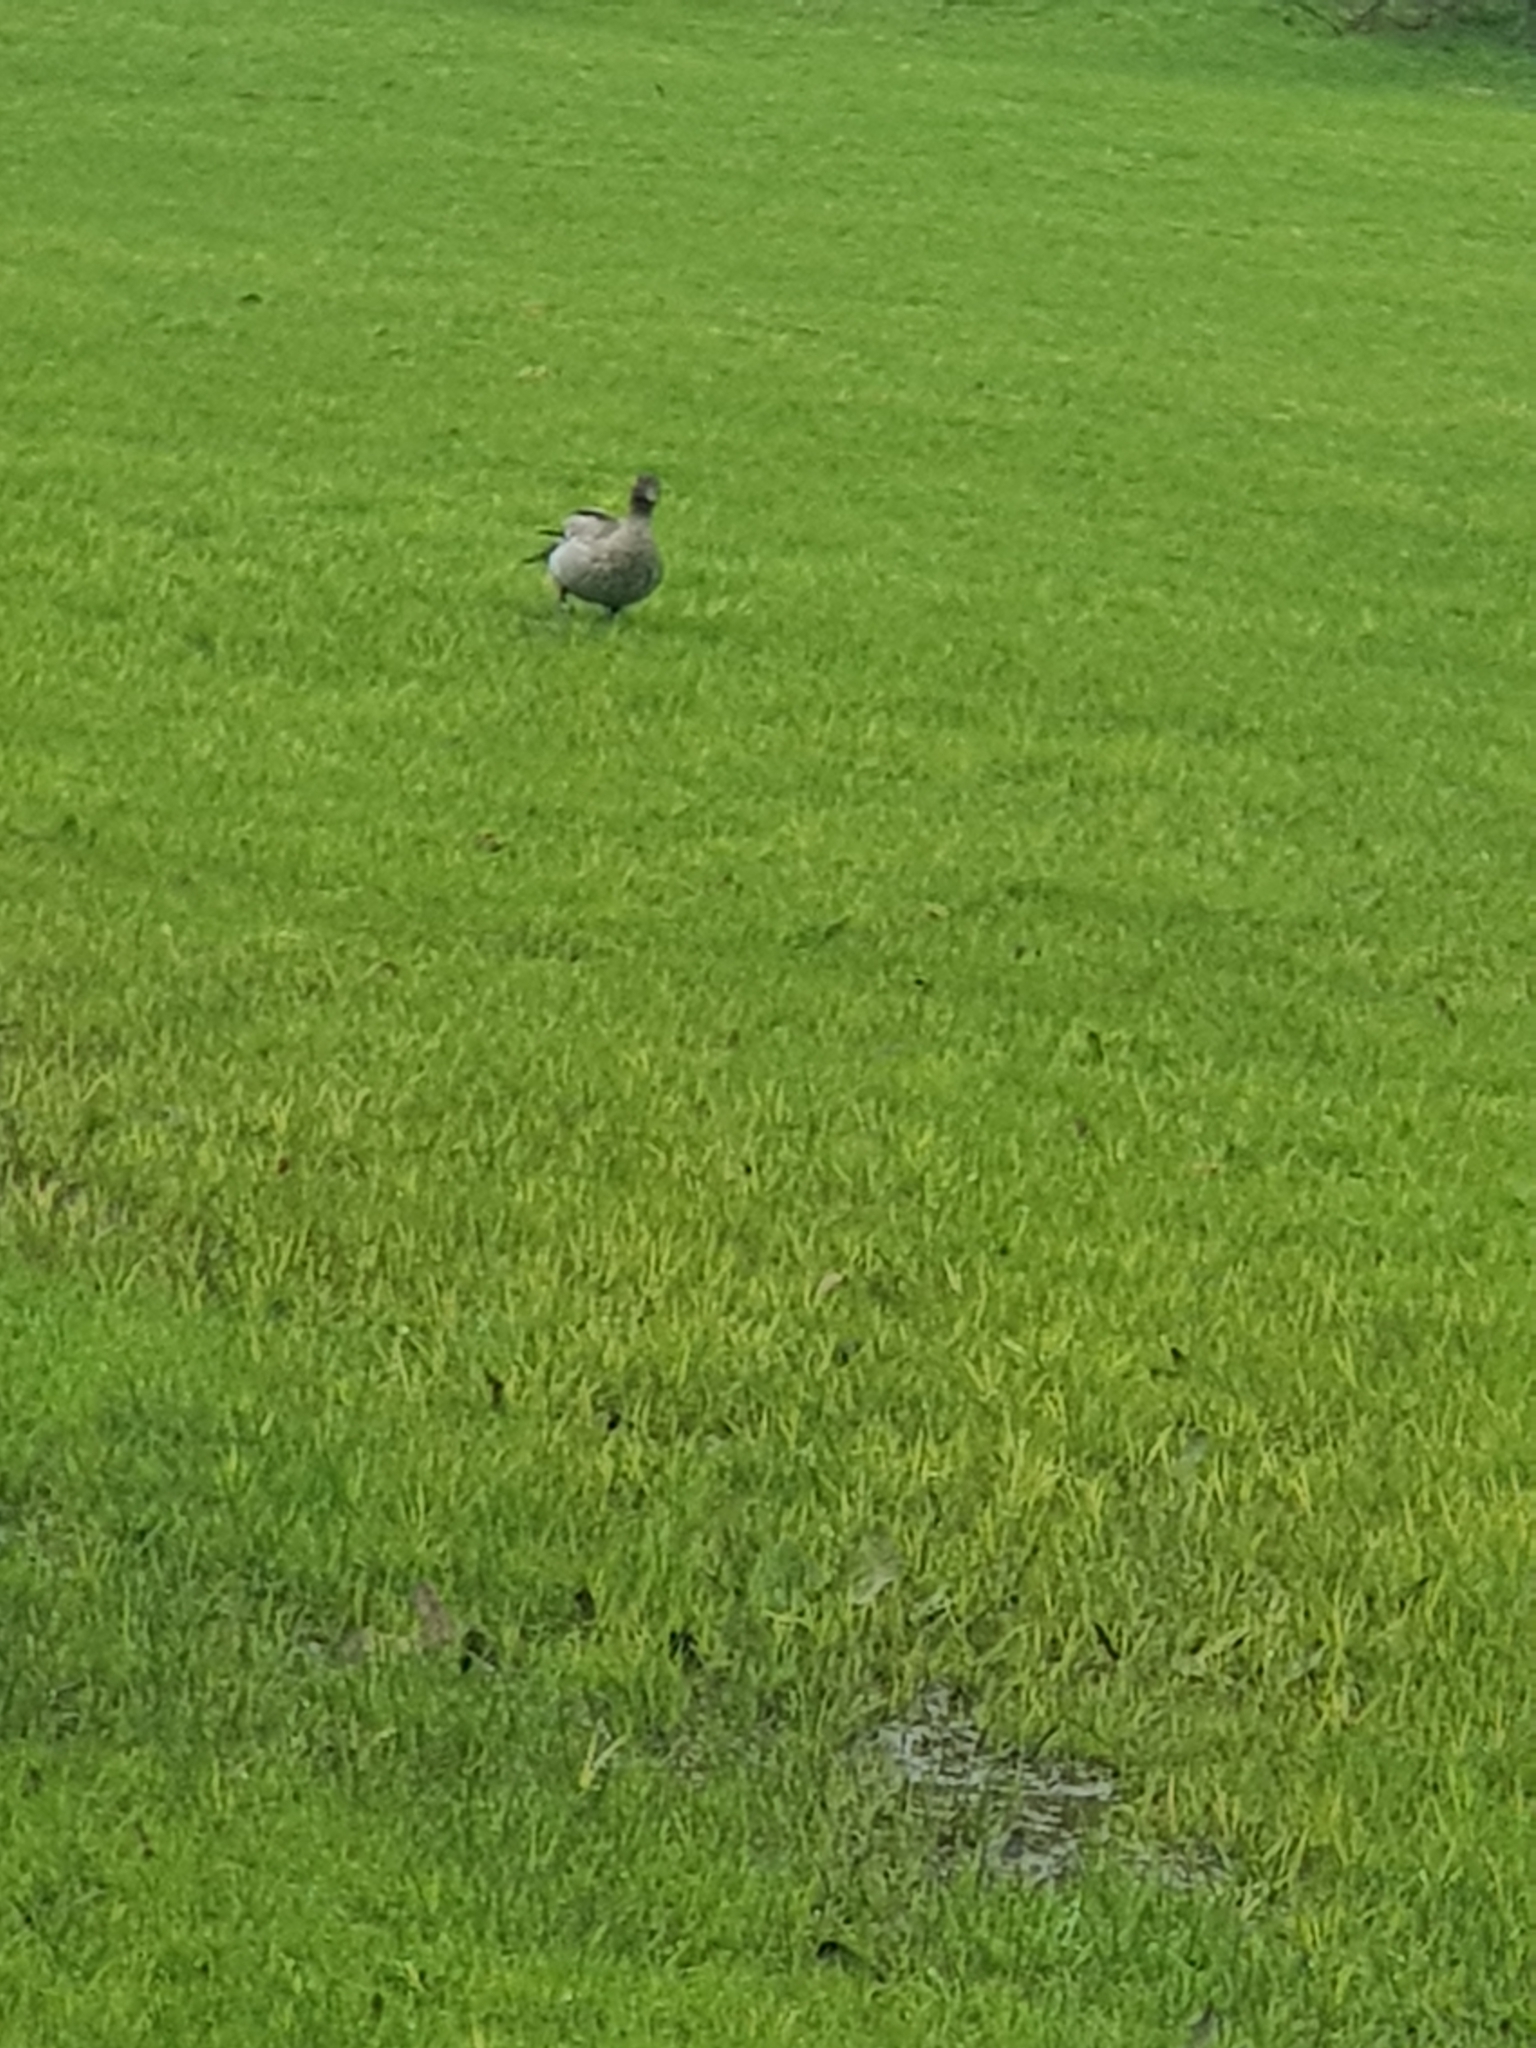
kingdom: Animalia
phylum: Chordata
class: Aves
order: Anseriformes
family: Anatidae
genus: Chenonetta
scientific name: Chenonetta jubata
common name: Maned duck
